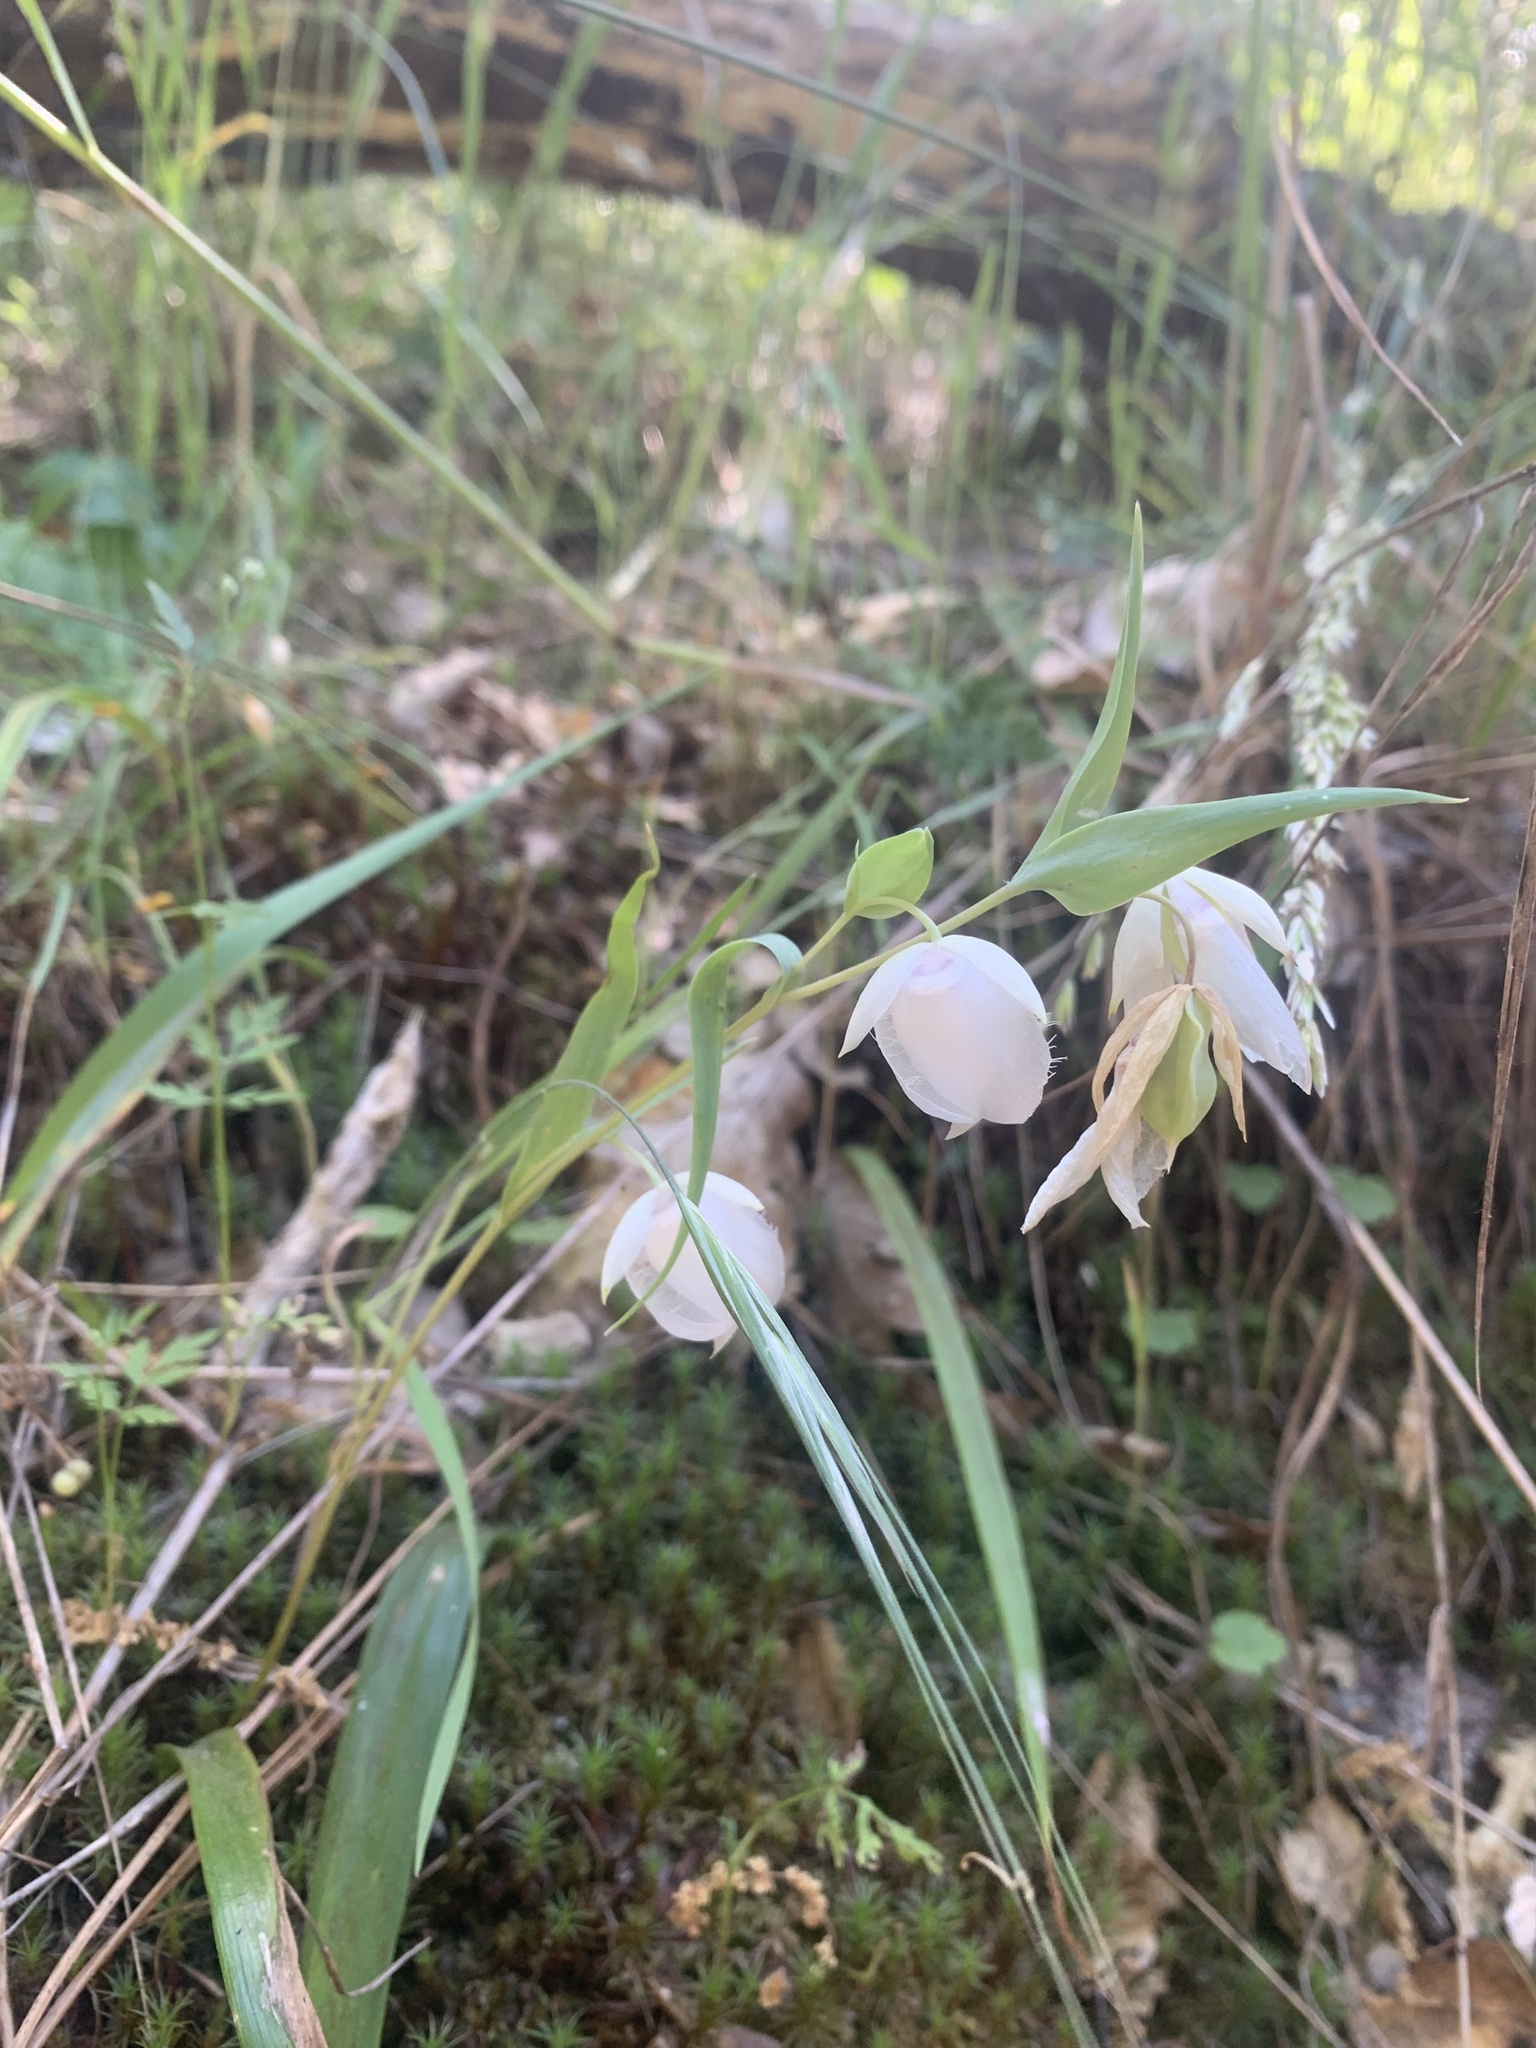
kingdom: Plantae
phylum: Tracheophyta
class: Liliopsida
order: Liliales
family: Liliaceae
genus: Calochortus
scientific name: Calochortus albus
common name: Fairy-lantern
